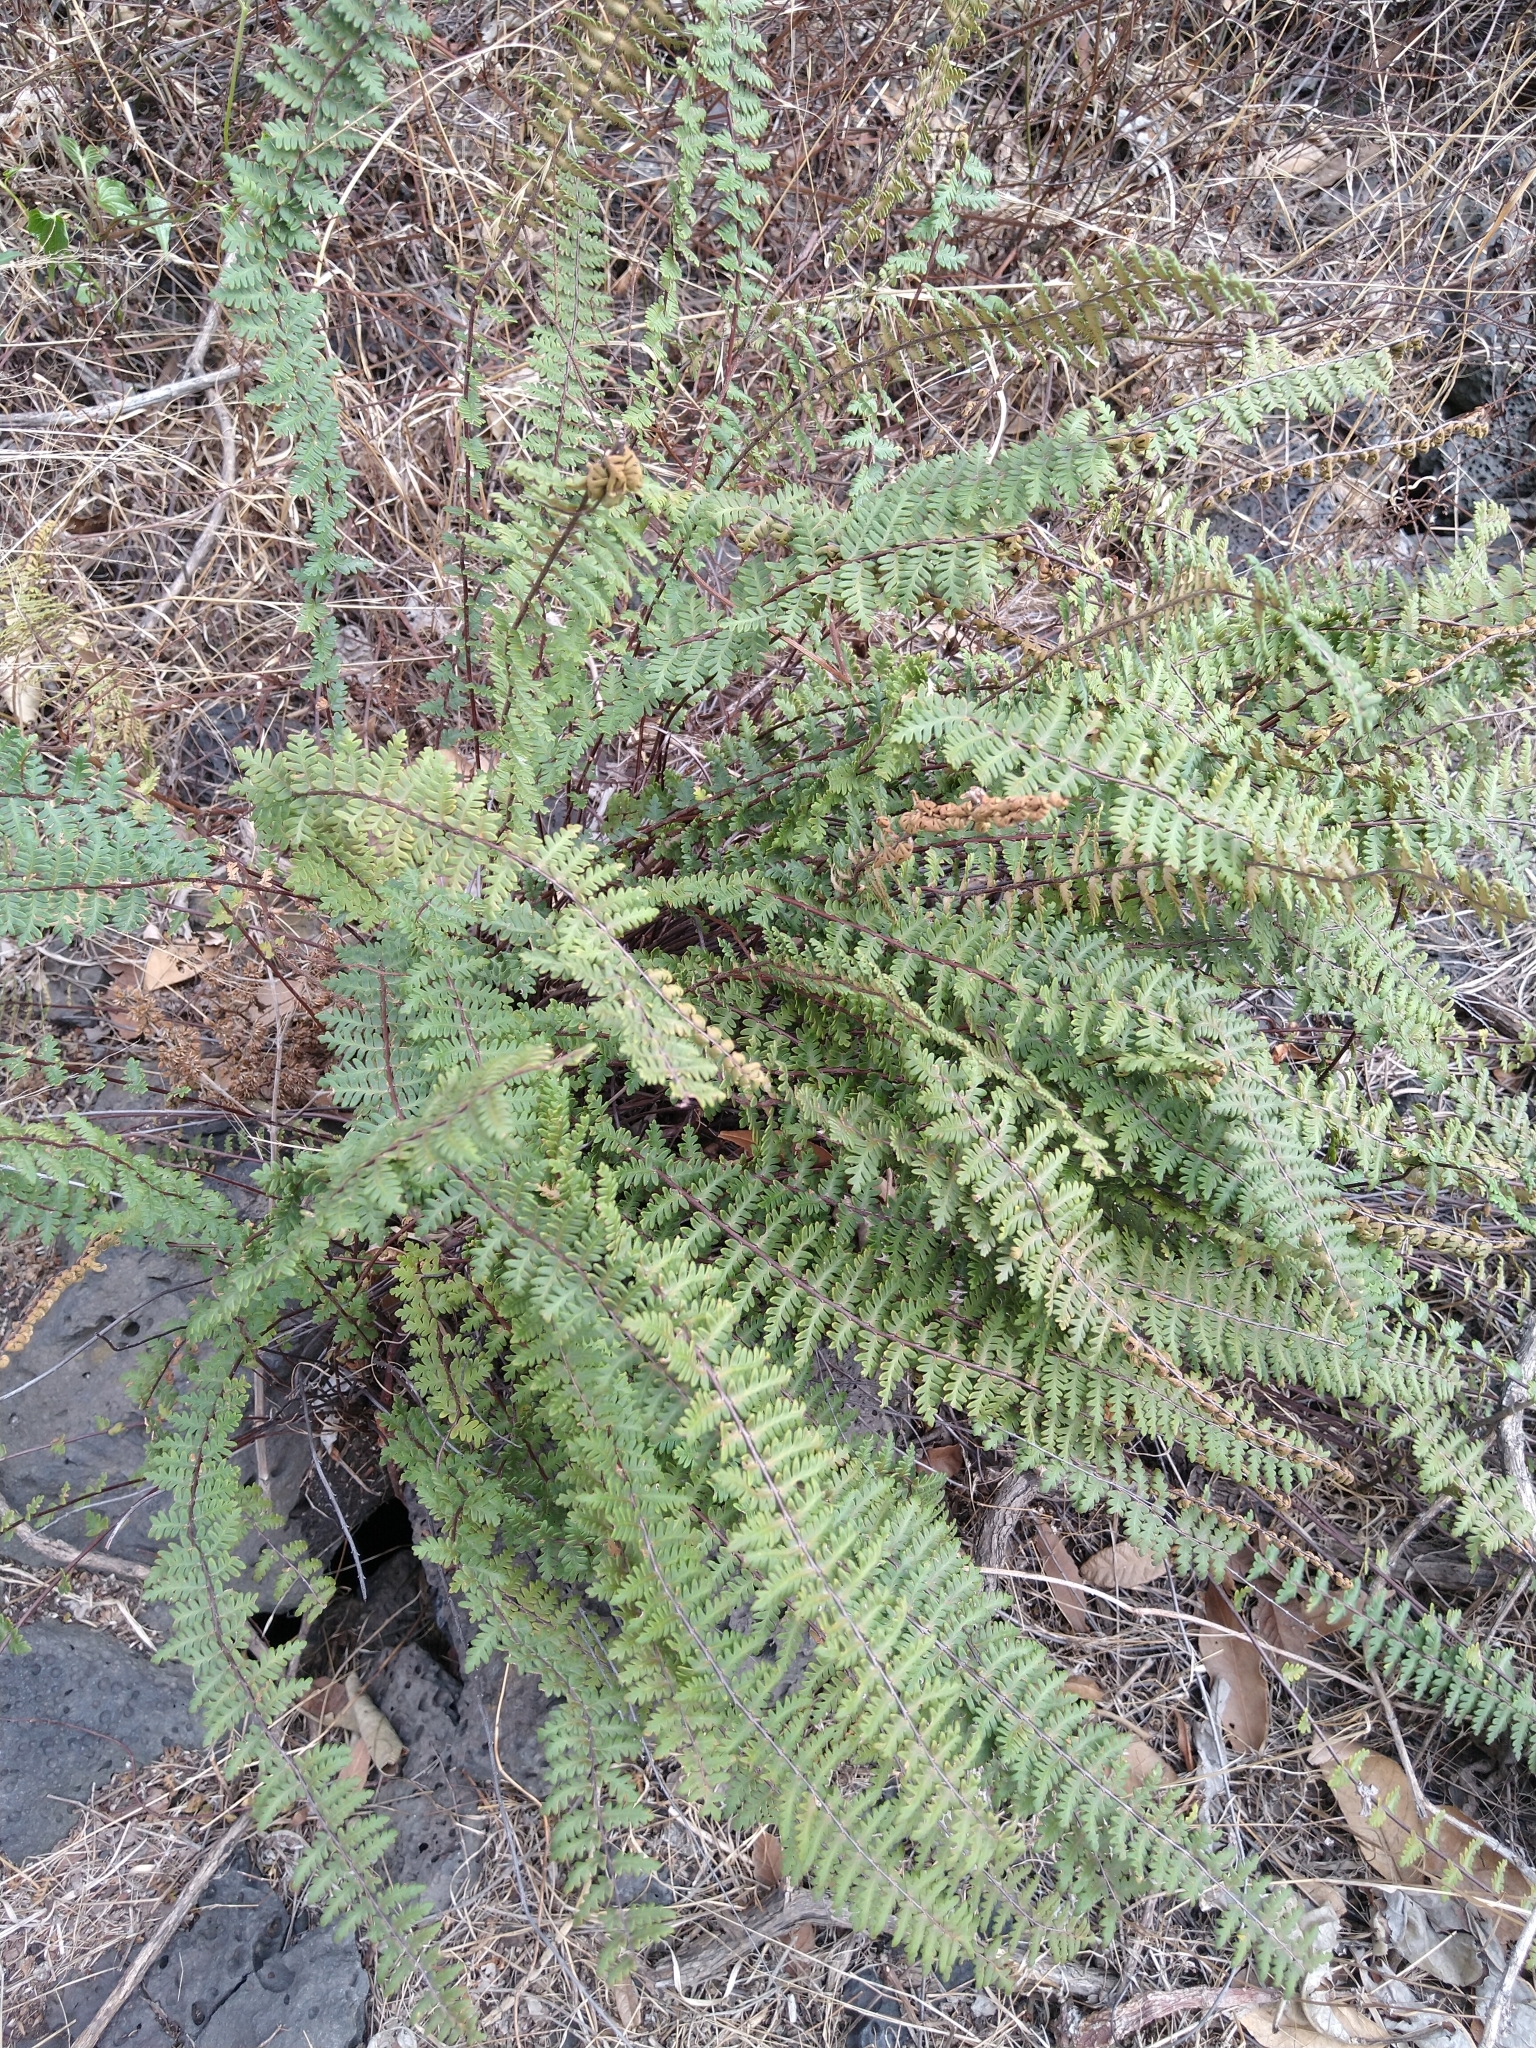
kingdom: Plantae
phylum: Tracheophyta
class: Polypodiopsida
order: Polypodiales
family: Pteridaceae
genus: Myriopteris
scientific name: Myriopteris aurea
